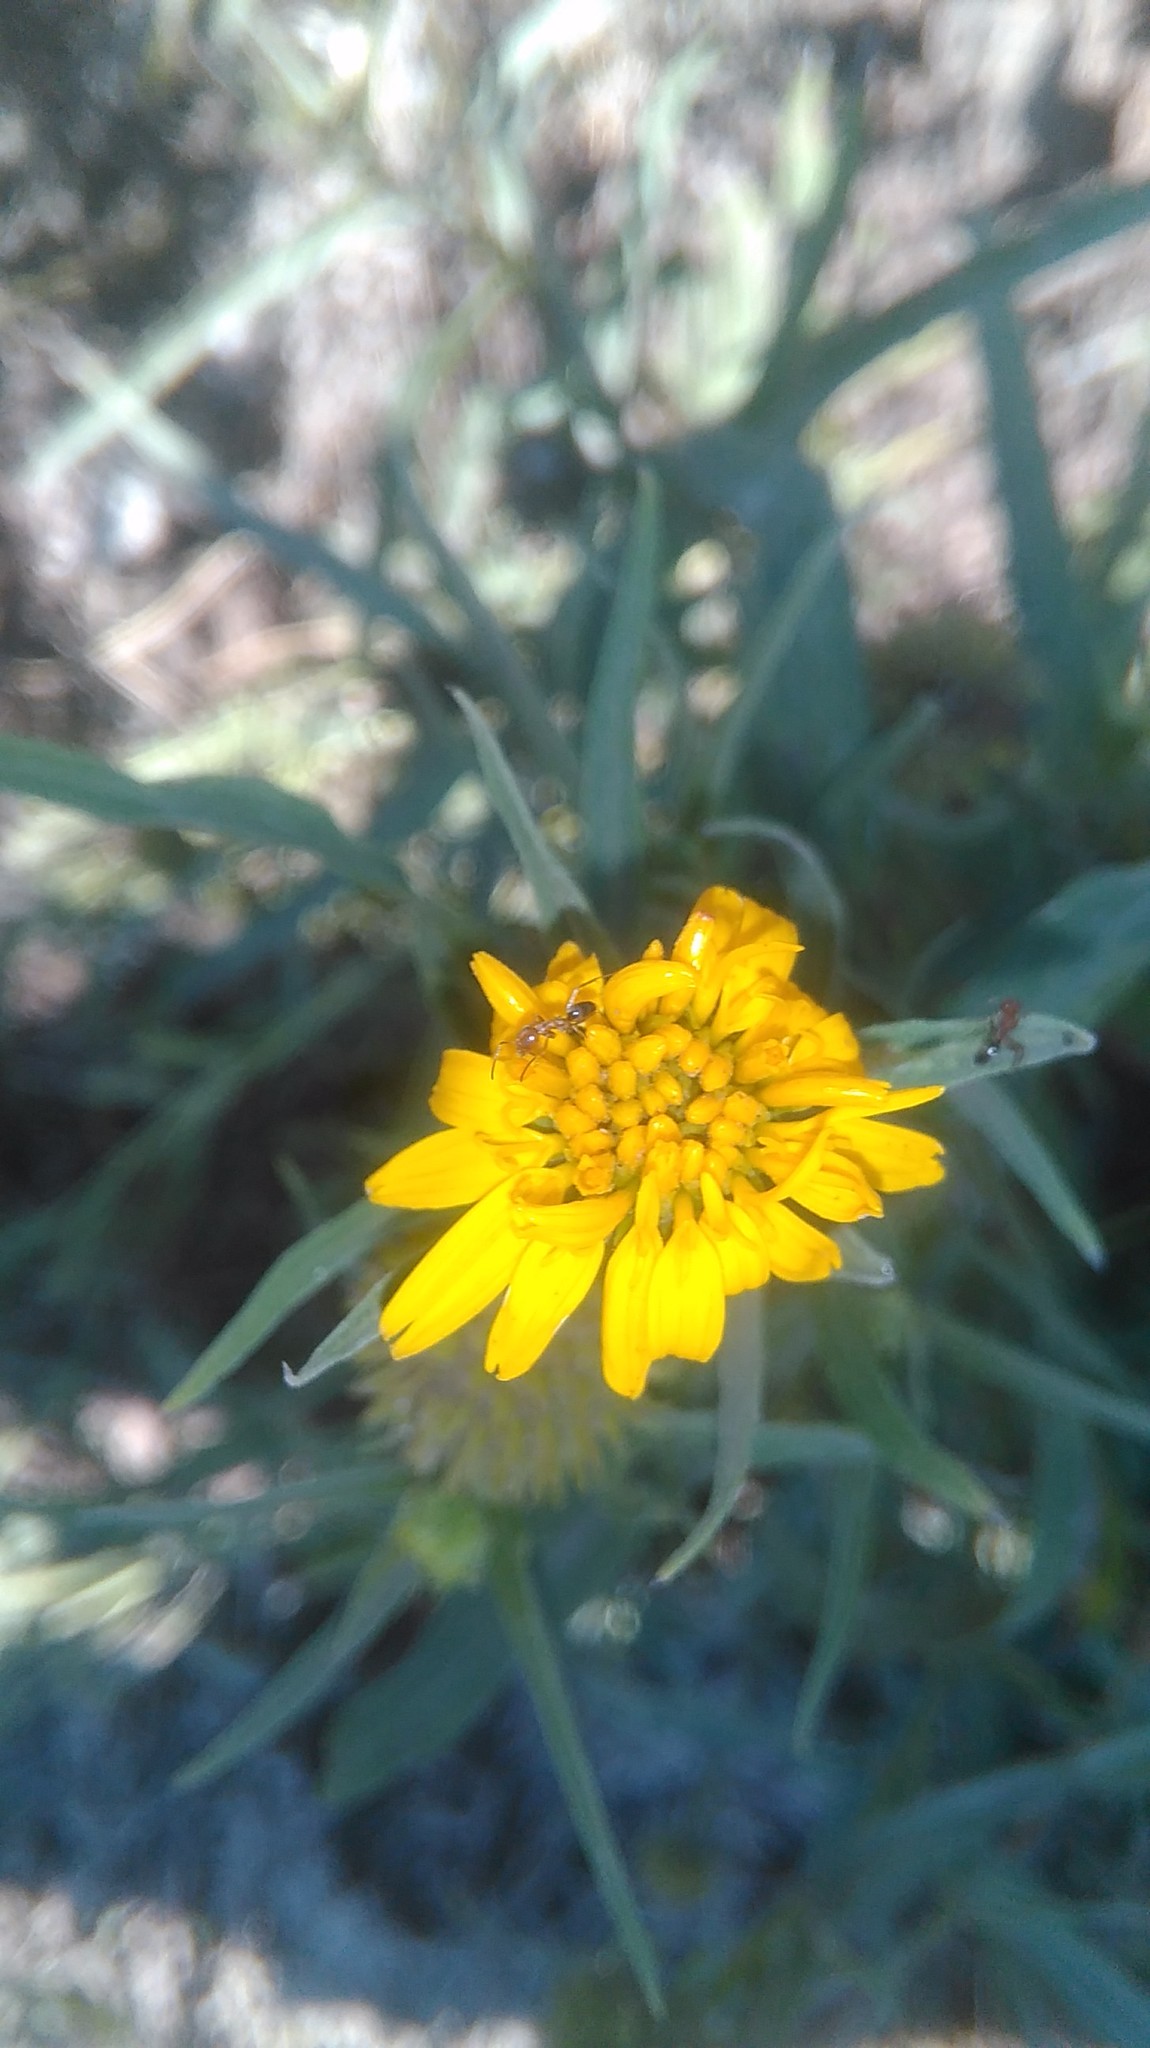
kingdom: Plantae
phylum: Tracheophyta
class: Magnoliopsida
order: Asterales
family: Asteraceae
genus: Pascalia
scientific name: Pascalia glauca
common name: Beach creeping oxeye
